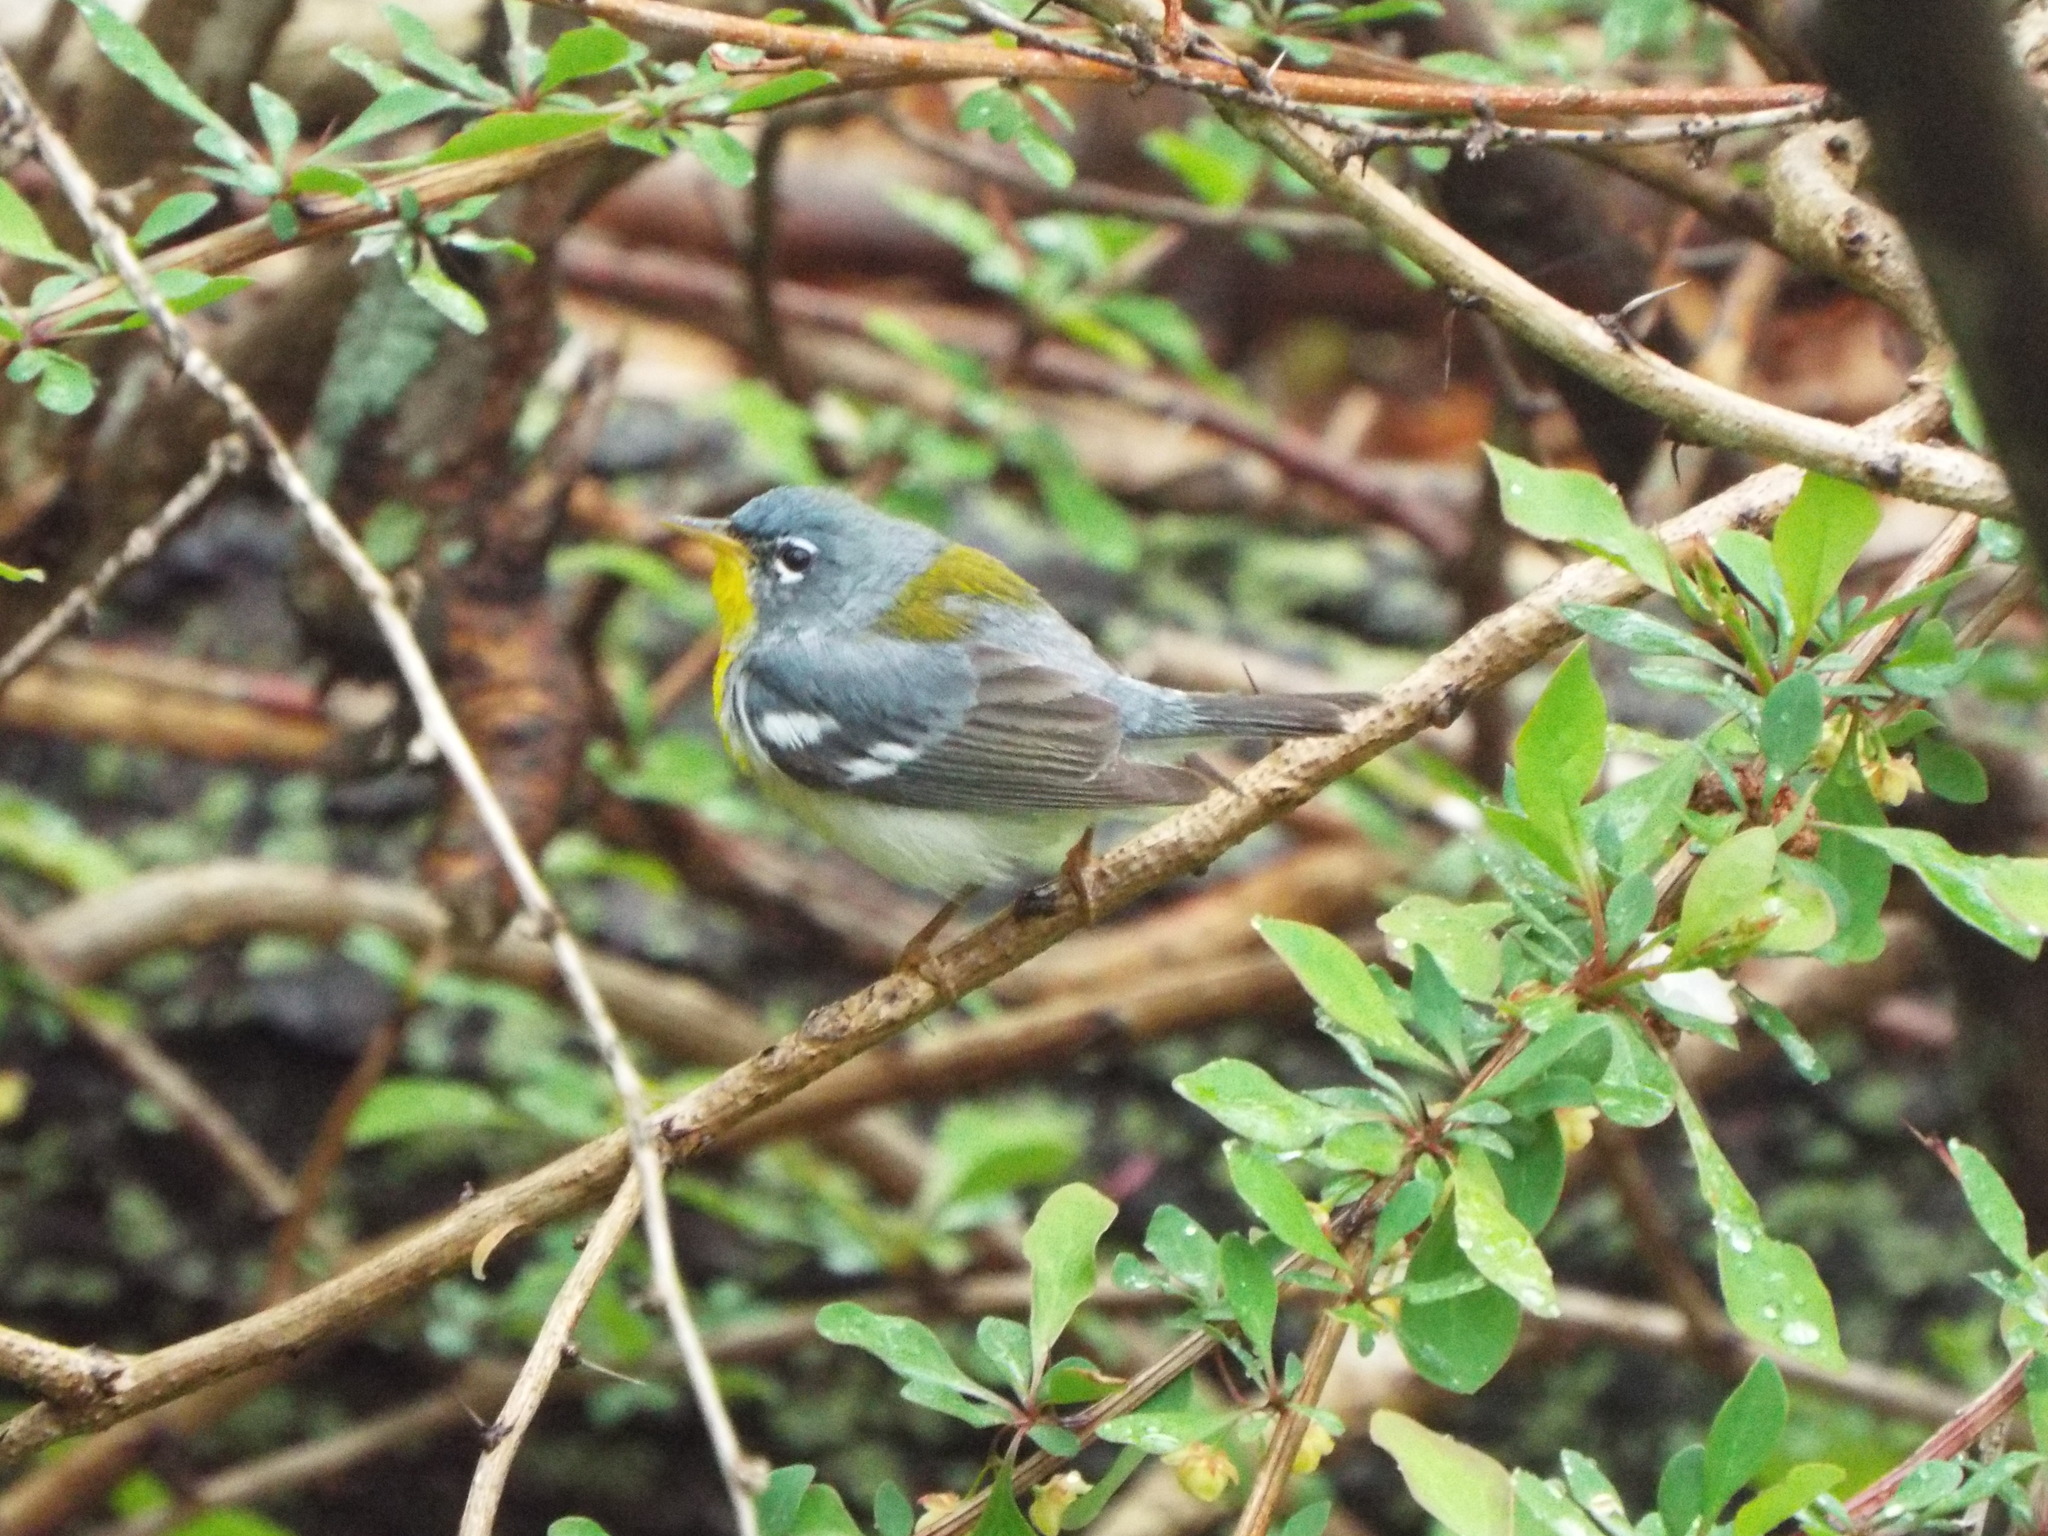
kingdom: Animalia
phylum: Chordata
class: Aves
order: Passeriformes
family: Parulidae
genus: Setophaga
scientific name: Setophaga americana
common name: Northern parula
